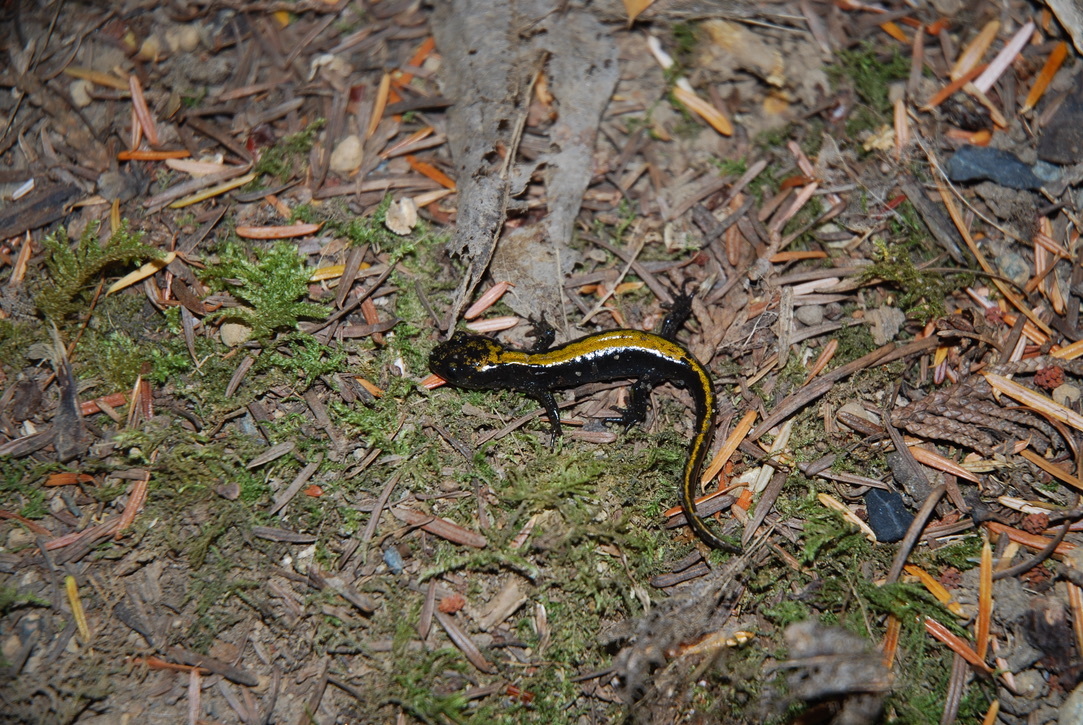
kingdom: Animalia
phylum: Chordata
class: Amphibia
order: Caudata
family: Ambystomatidae
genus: Ambystoma
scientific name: Ambystoma macrodactylum
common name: Long-toed salamander
